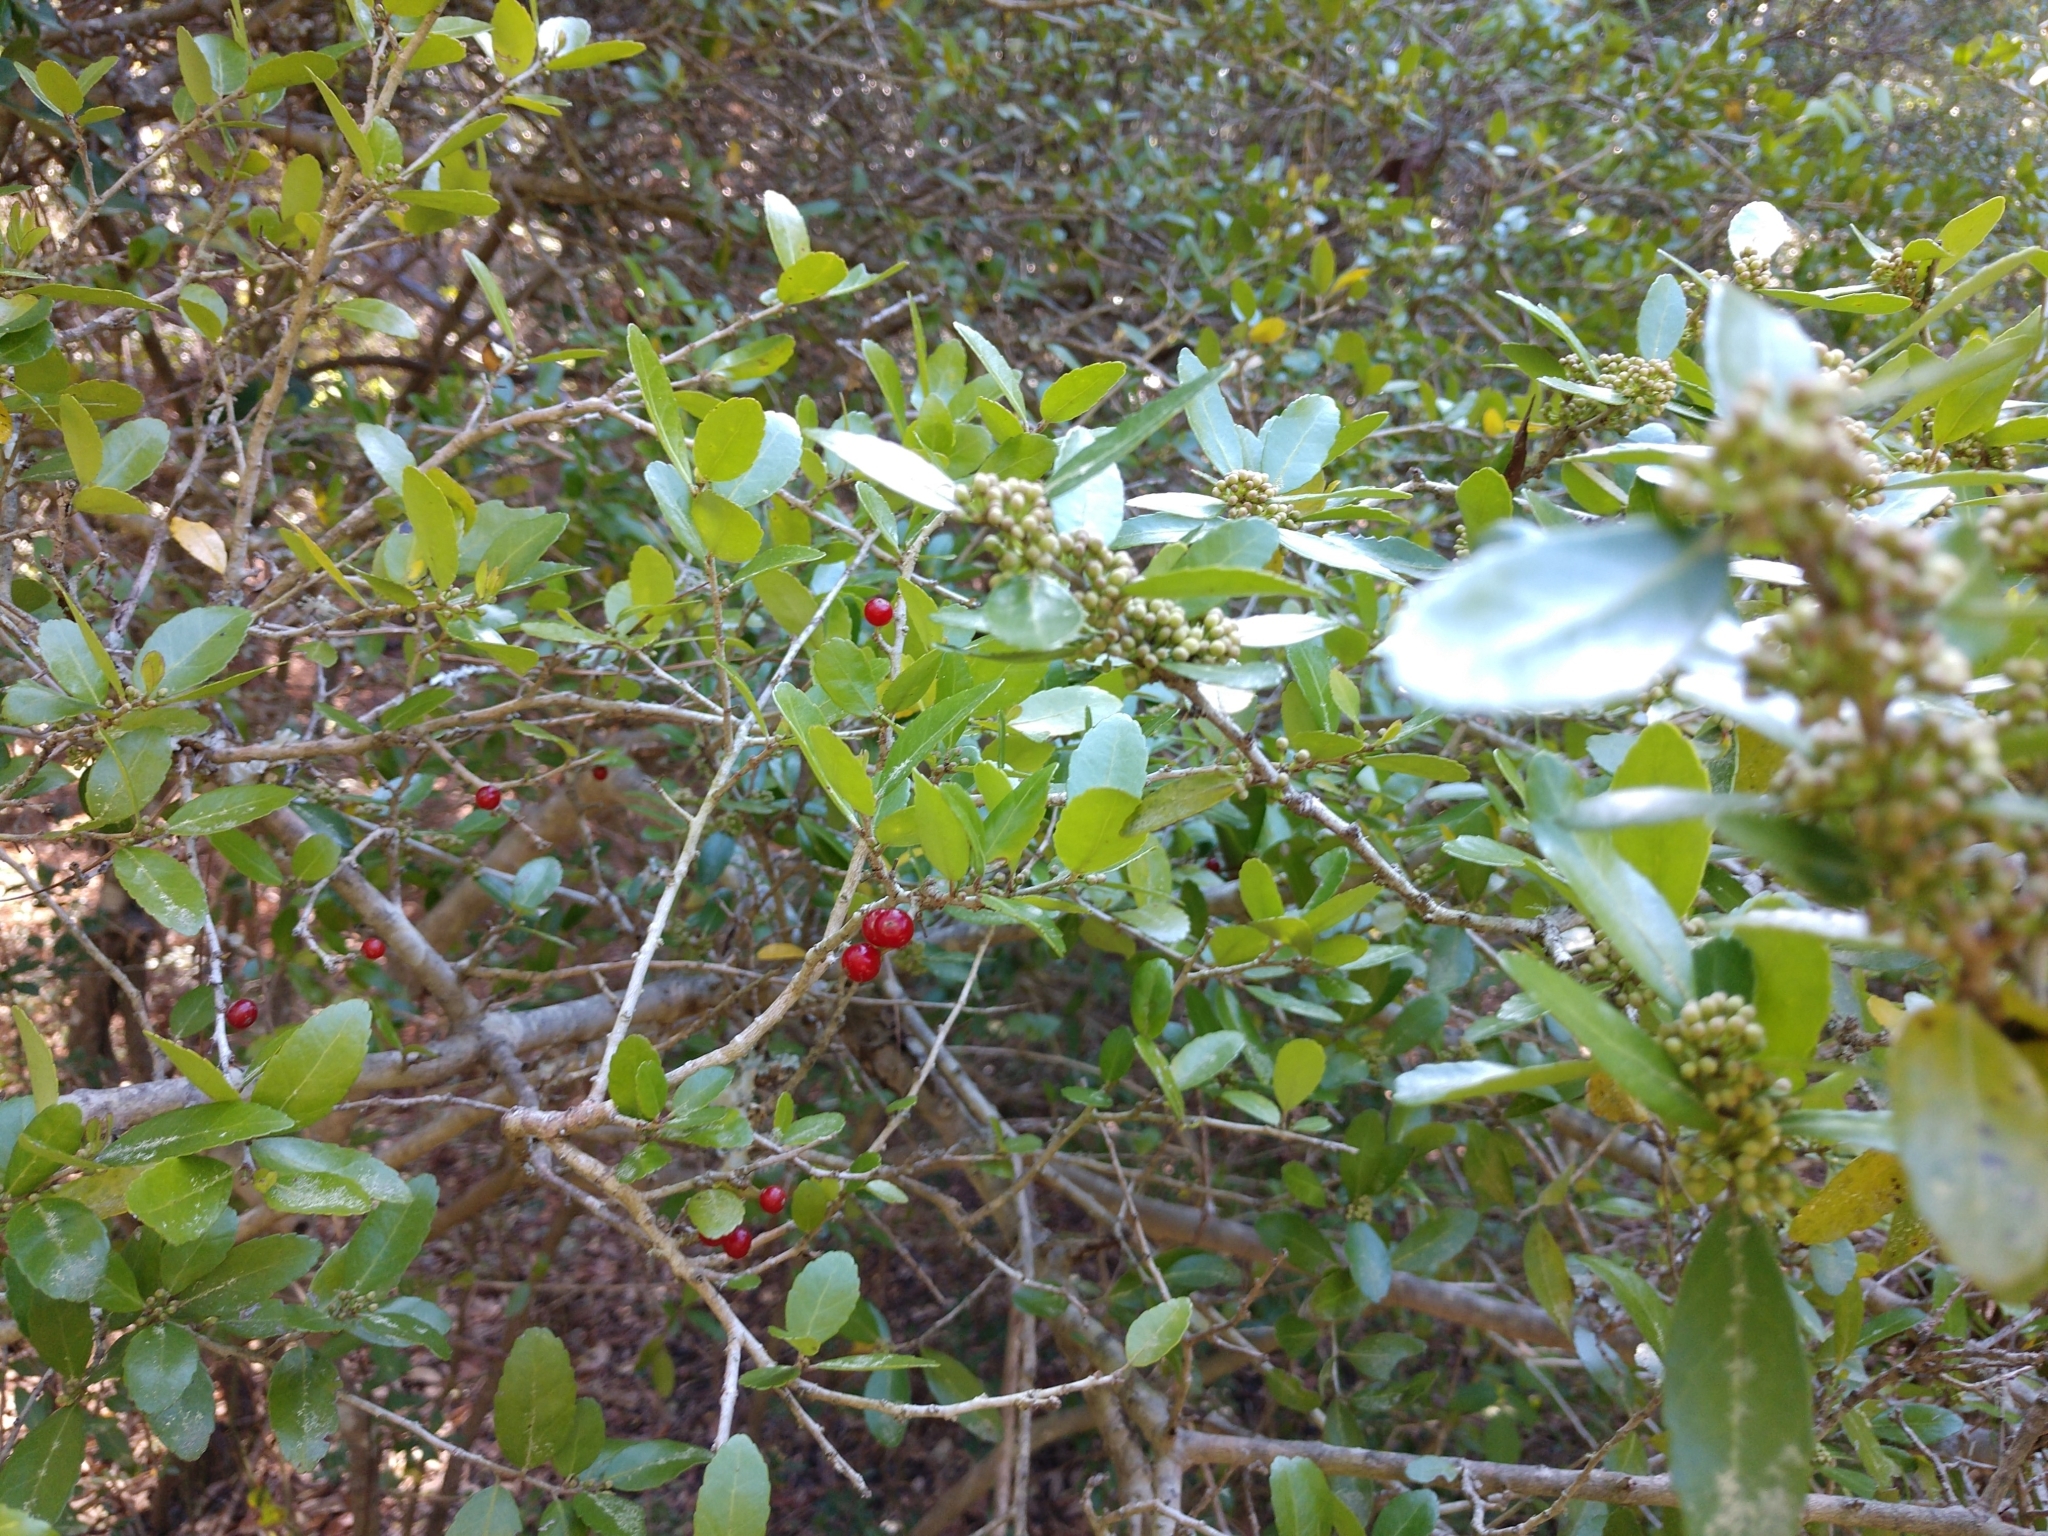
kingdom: Plantae
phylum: Tracheophyta
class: Magnoliopsida
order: Aquifoliales
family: Aquifoliaceae
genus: Ilex
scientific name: Ilex vomitoria
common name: Yaupon holly
